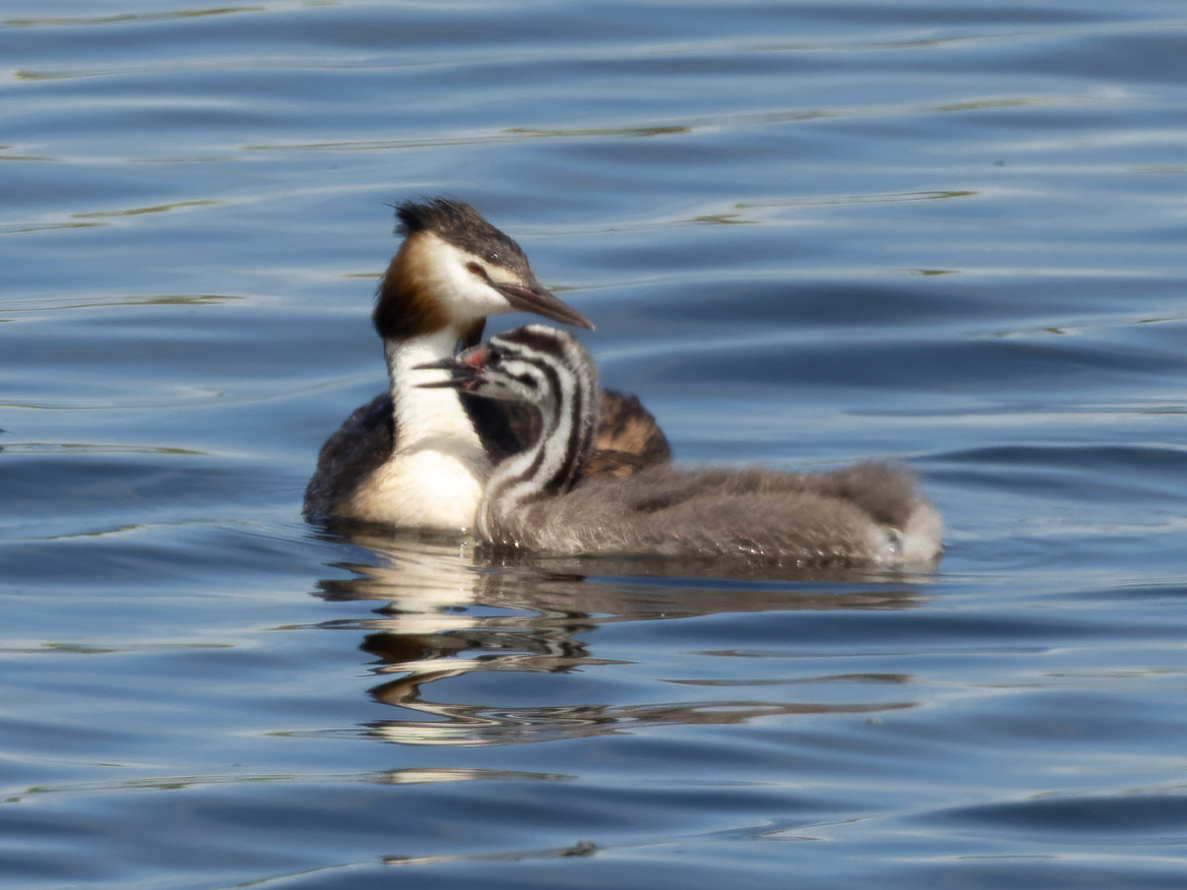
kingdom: Animalia
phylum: Chordata
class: Aves
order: Podicipediformes
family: Podicipedidae
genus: Podiceps
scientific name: Podiceps cristatus
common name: Great crested grebe
